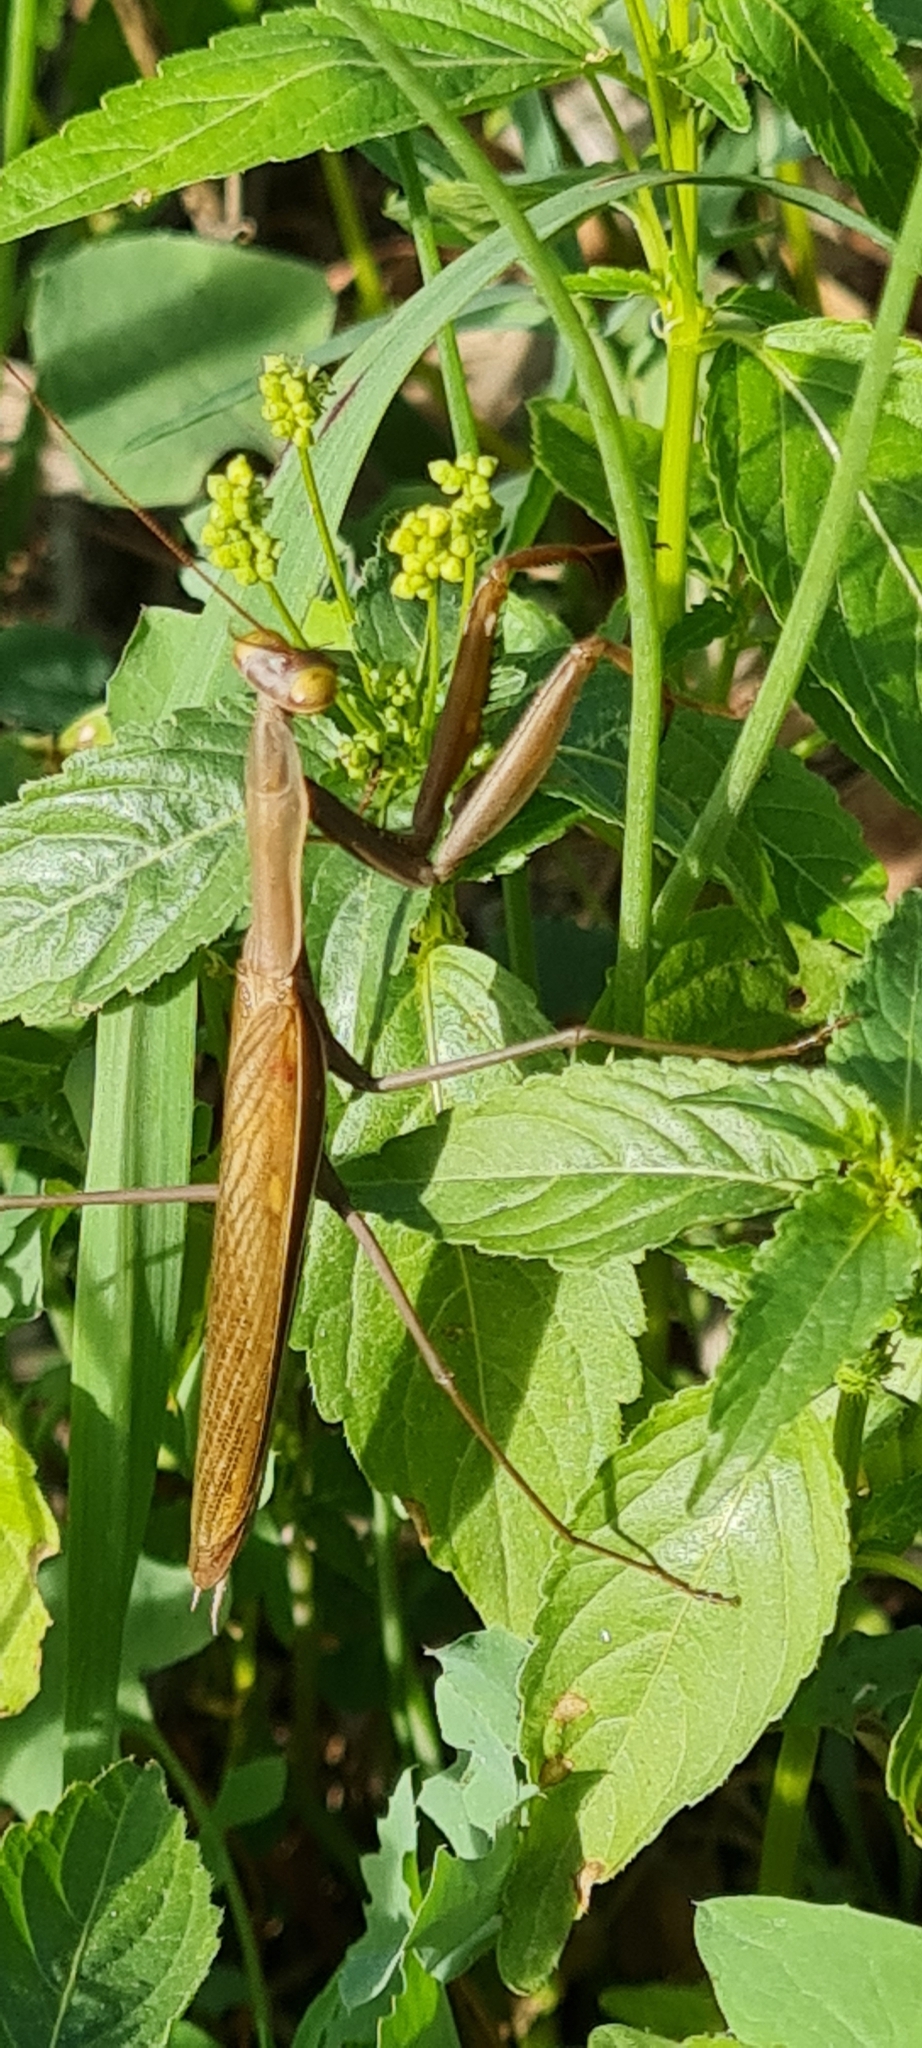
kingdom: Animalia
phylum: Arthropoda
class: Insecta
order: Mantodea
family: Mantidae
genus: Mantis
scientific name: Mantis religiosa
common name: Praying mantis
